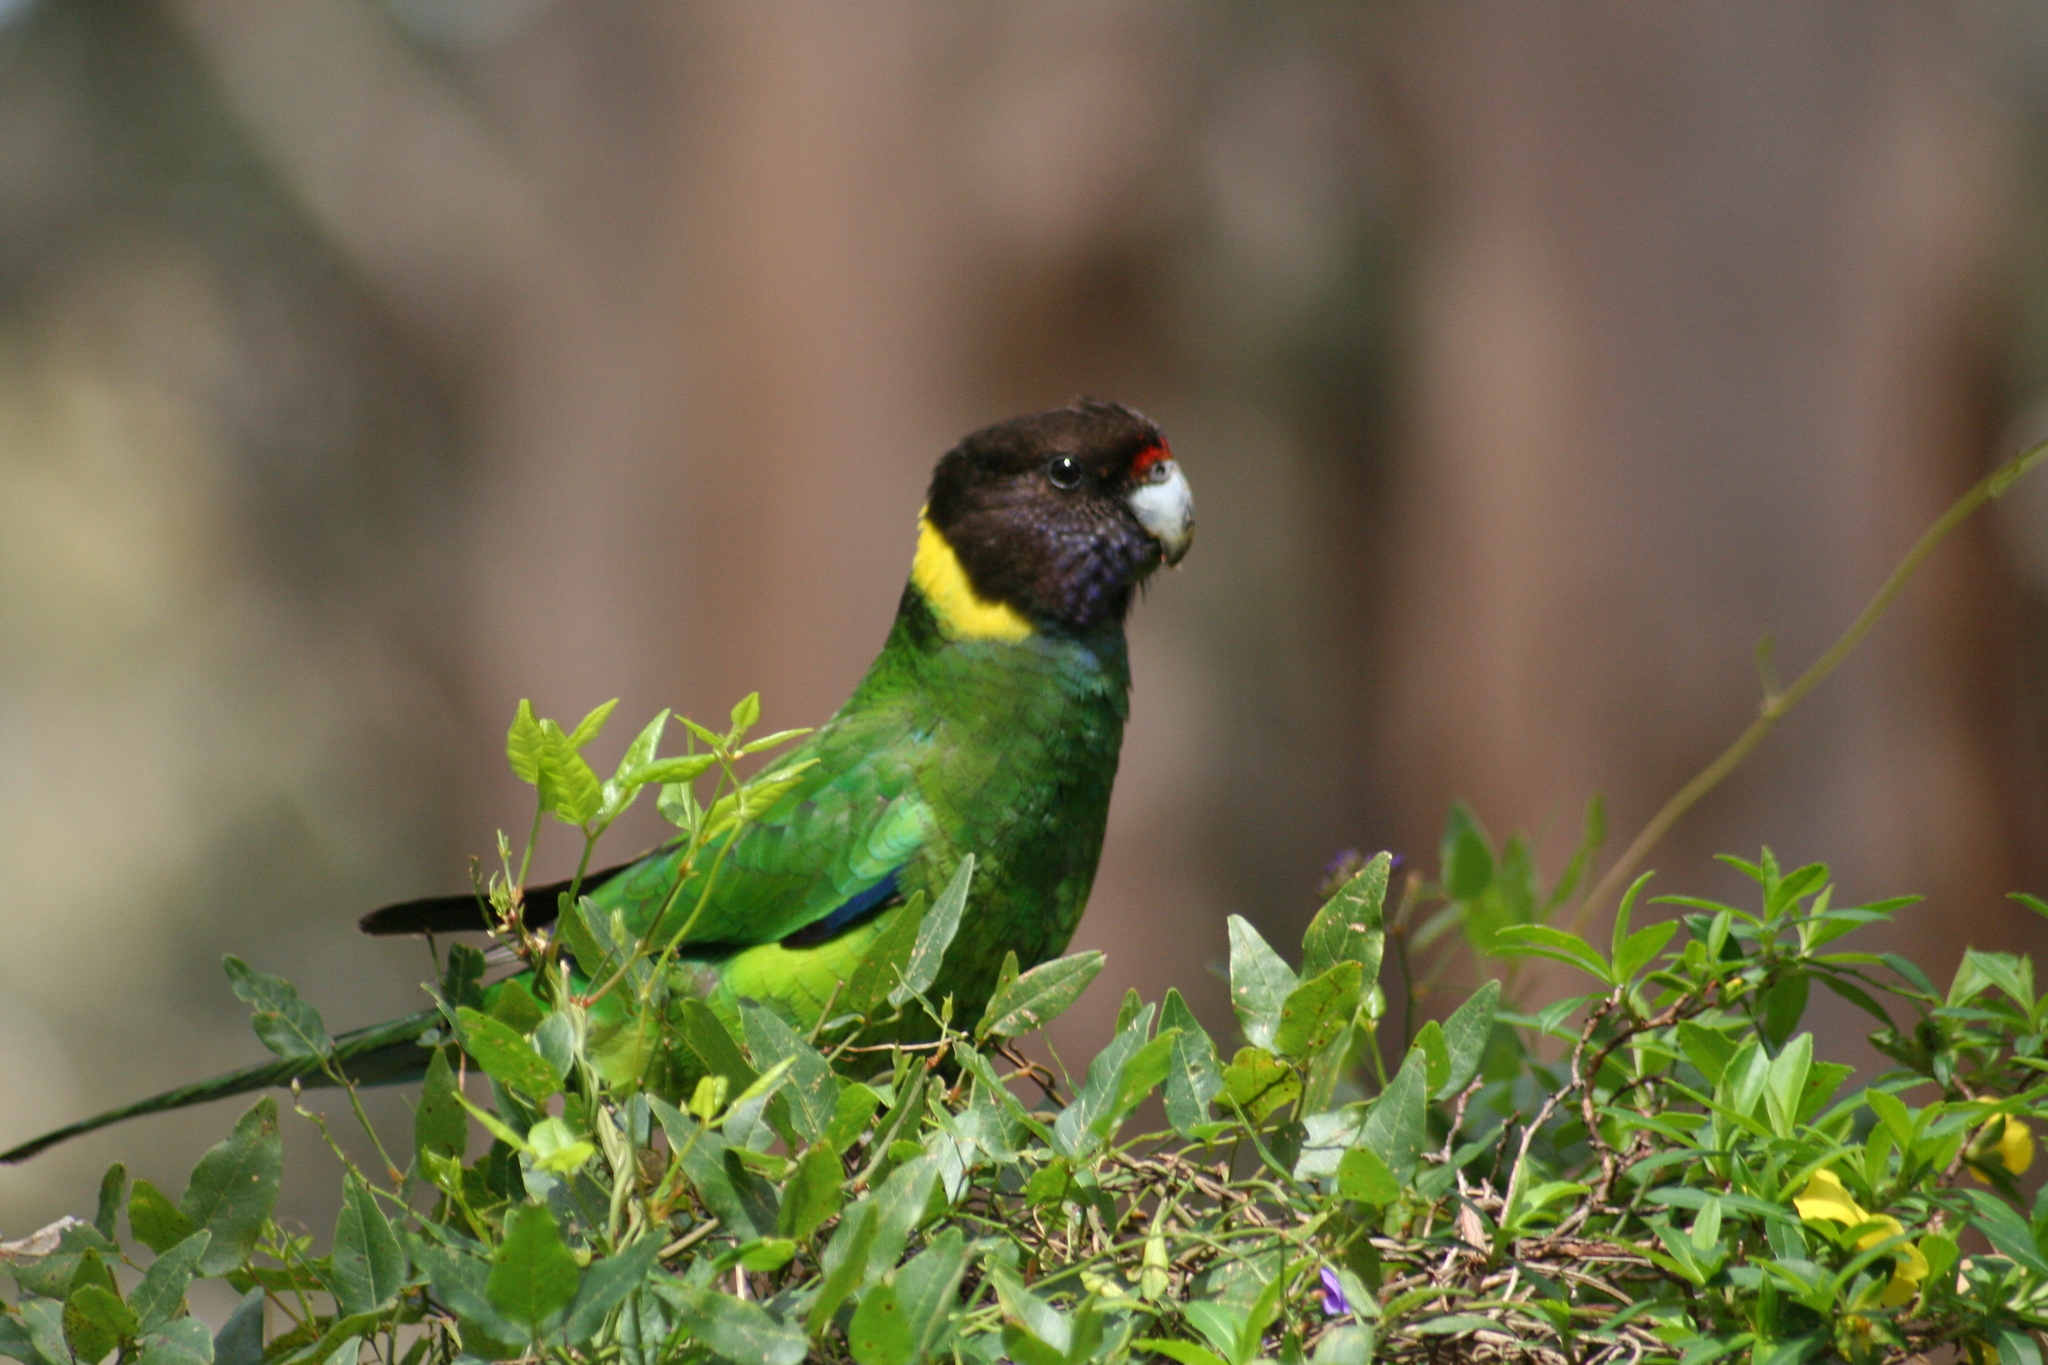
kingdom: Animalia
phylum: Chordata
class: Aves
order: Psittaciformes
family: Psittacidae
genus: Barnardius
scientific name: Barnardius zonarius
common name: Australian ringneck
